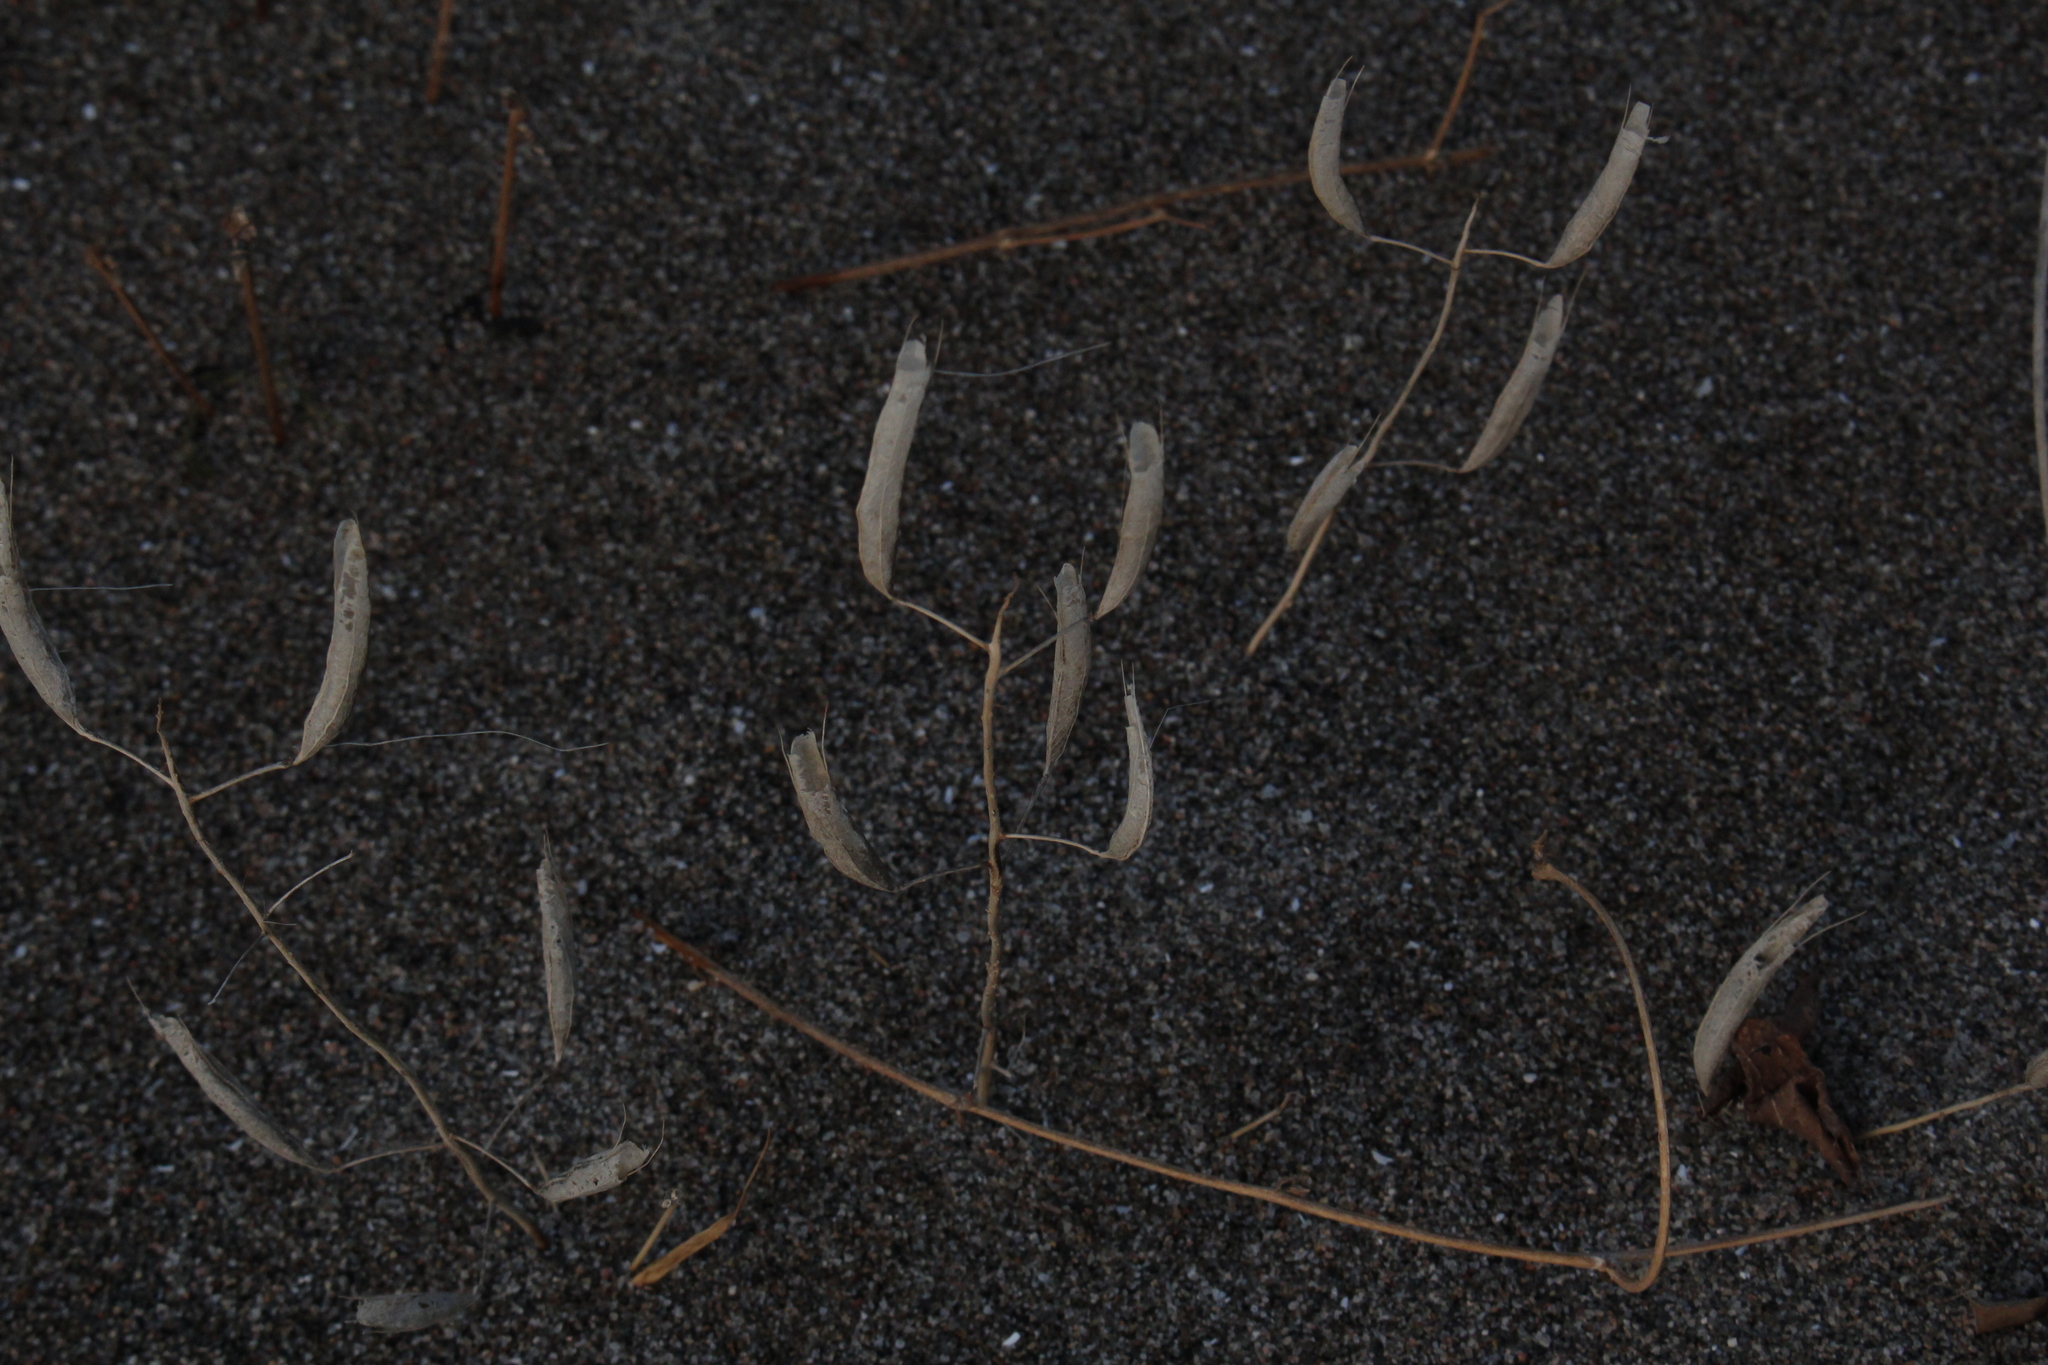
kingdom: Plantae
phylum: Tracheophyta
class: Magnoliopsida
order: Brassicales
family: Cleomaceae
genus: Polanisia
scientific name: Polanisia dodecandra
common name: Clammyweed
